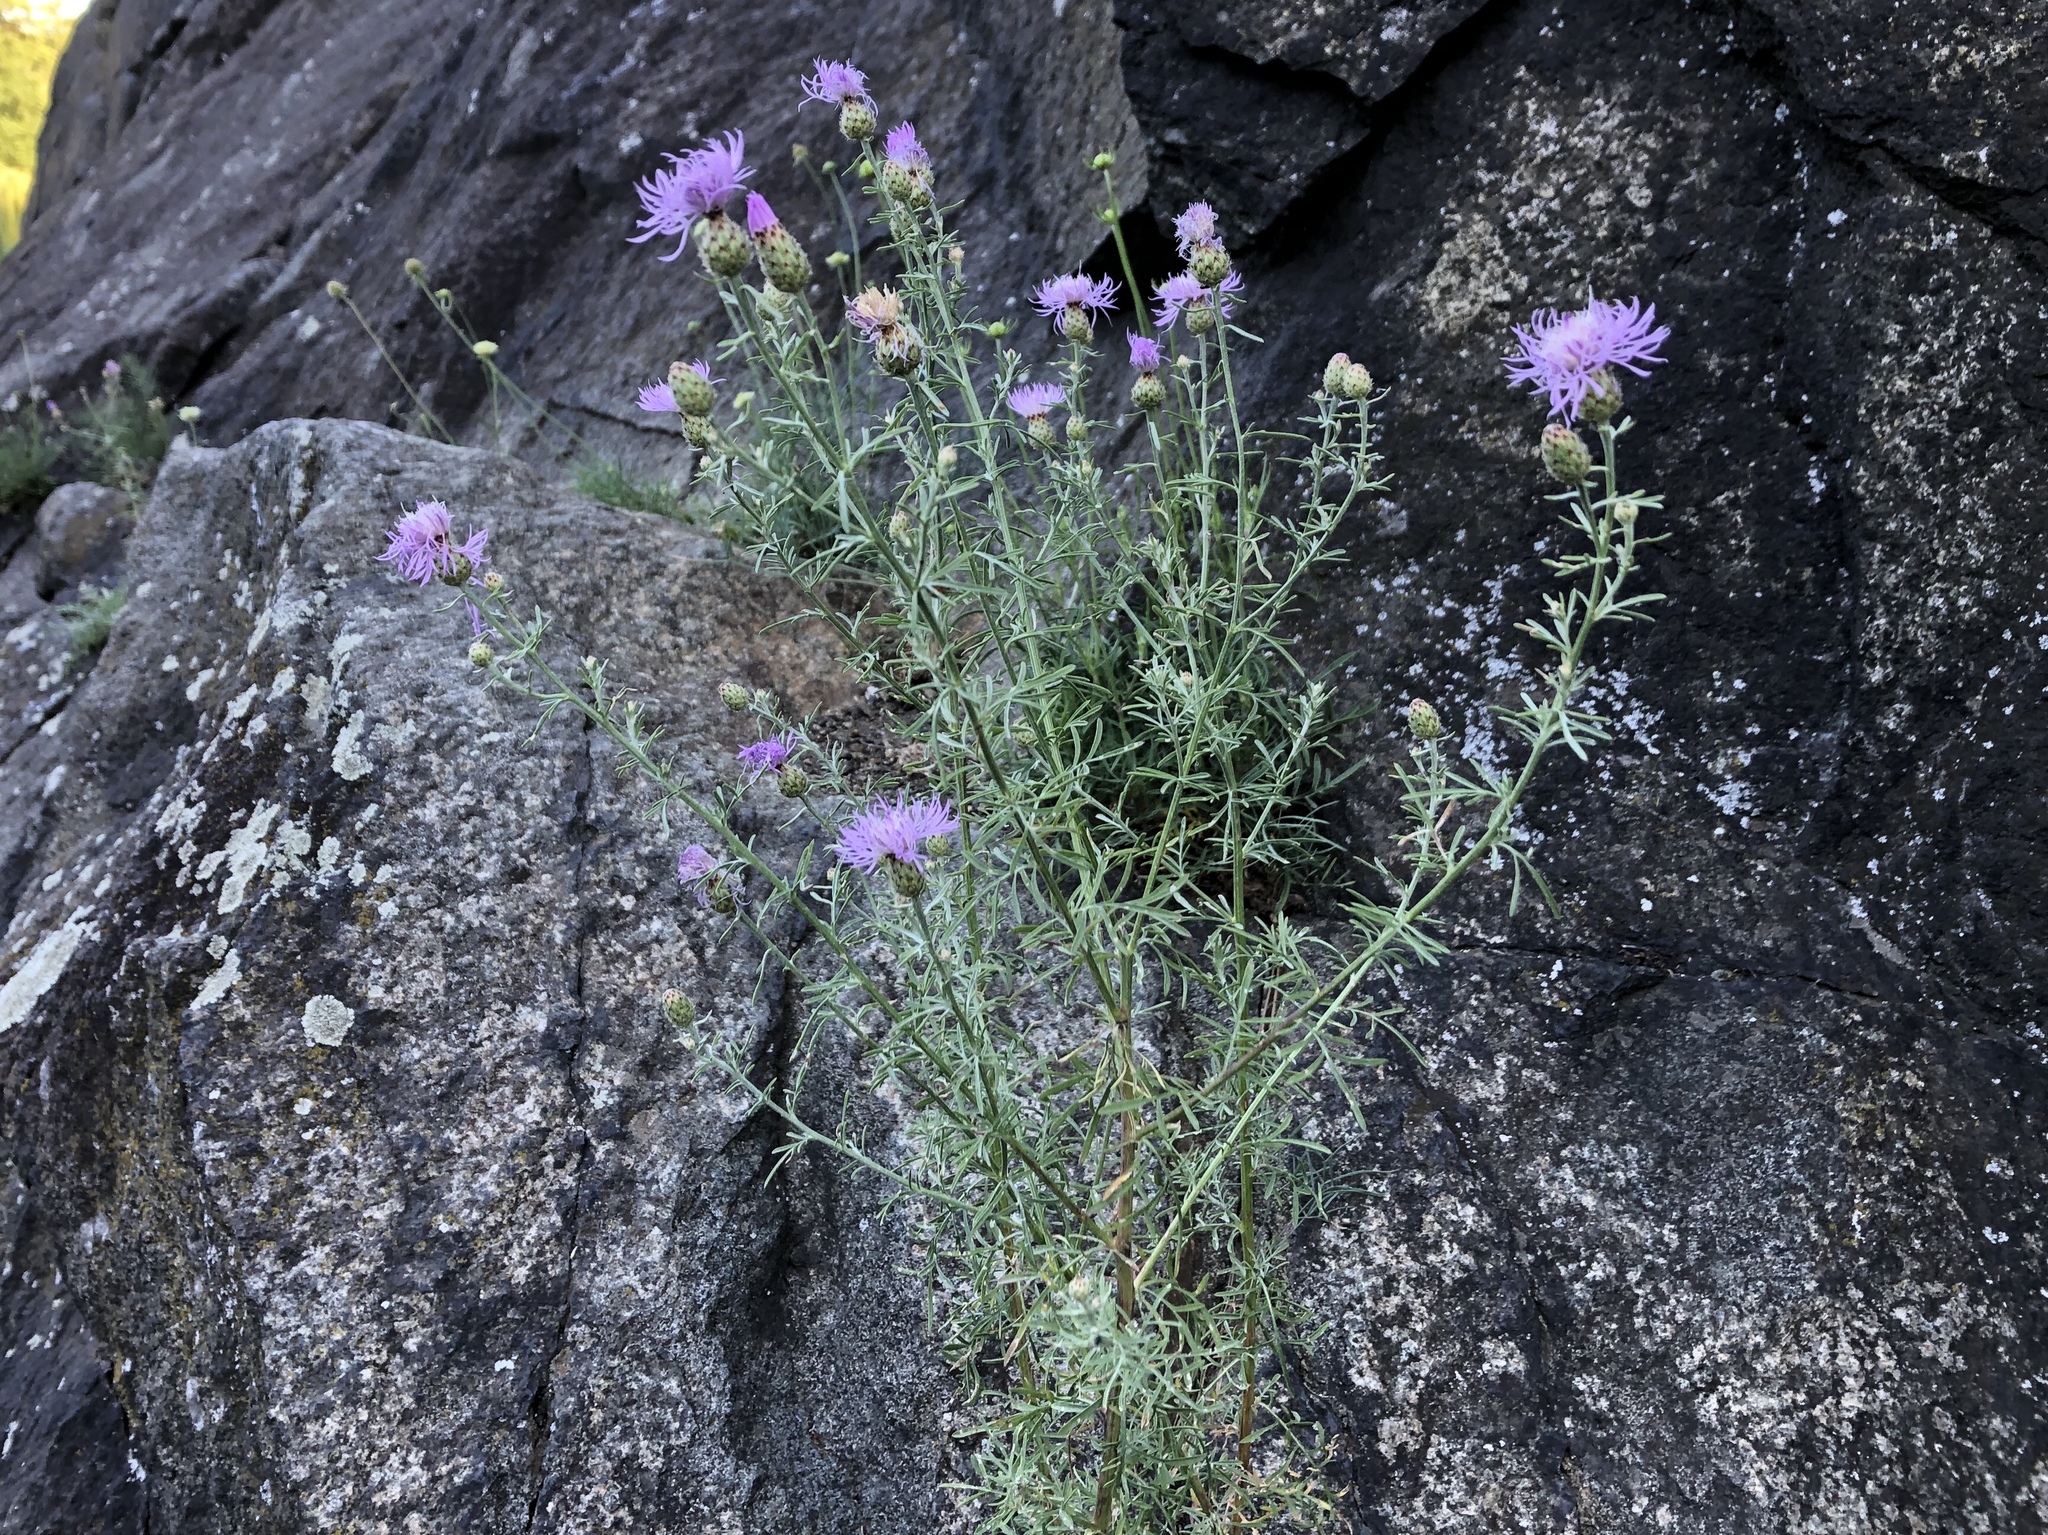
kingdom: Plantae
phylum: Tracheophyta
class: Magnoliopsida
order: Asterales
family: Asteraceae
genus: Centaurea
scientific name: Centaurea stoebe
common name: Spotted knapweed
